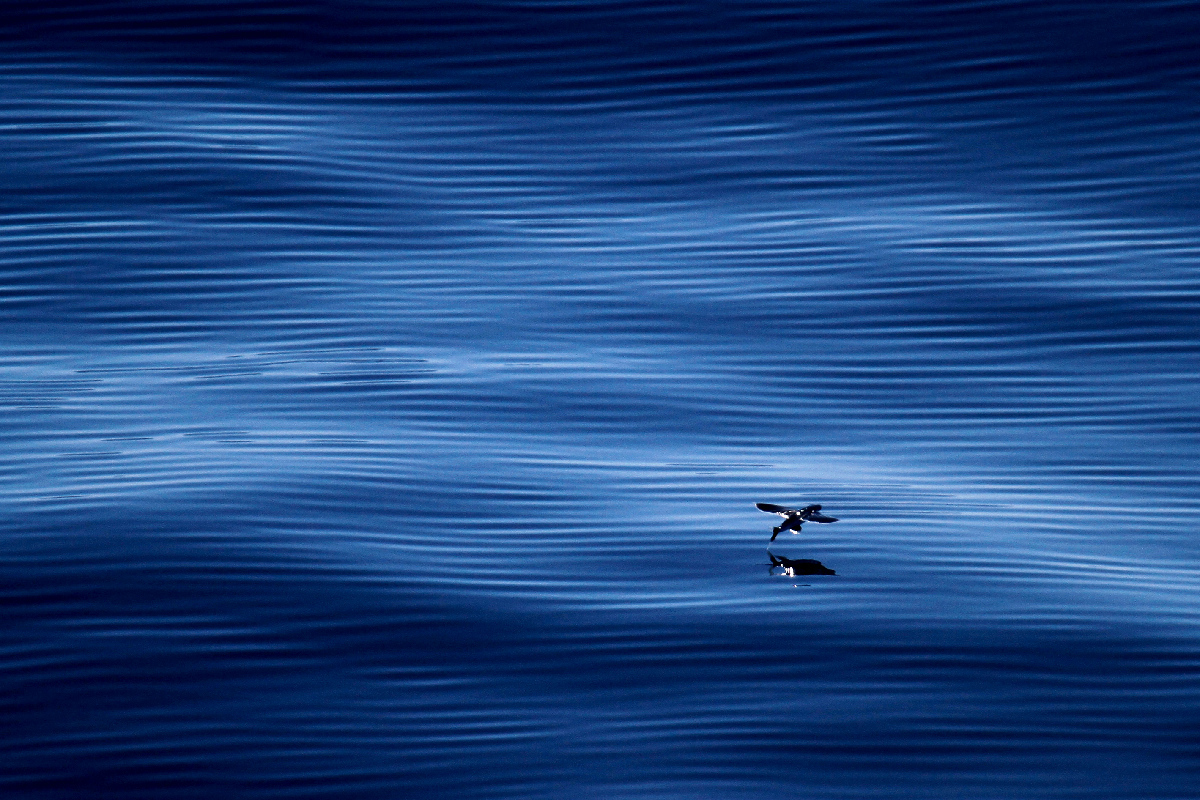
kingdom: Animalia
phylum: Chordata
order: Beloniformes
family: Exocoetidae
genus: Cheilopogon
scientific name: Cheilopogon xenopterus
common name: Whitetip flyingfish
